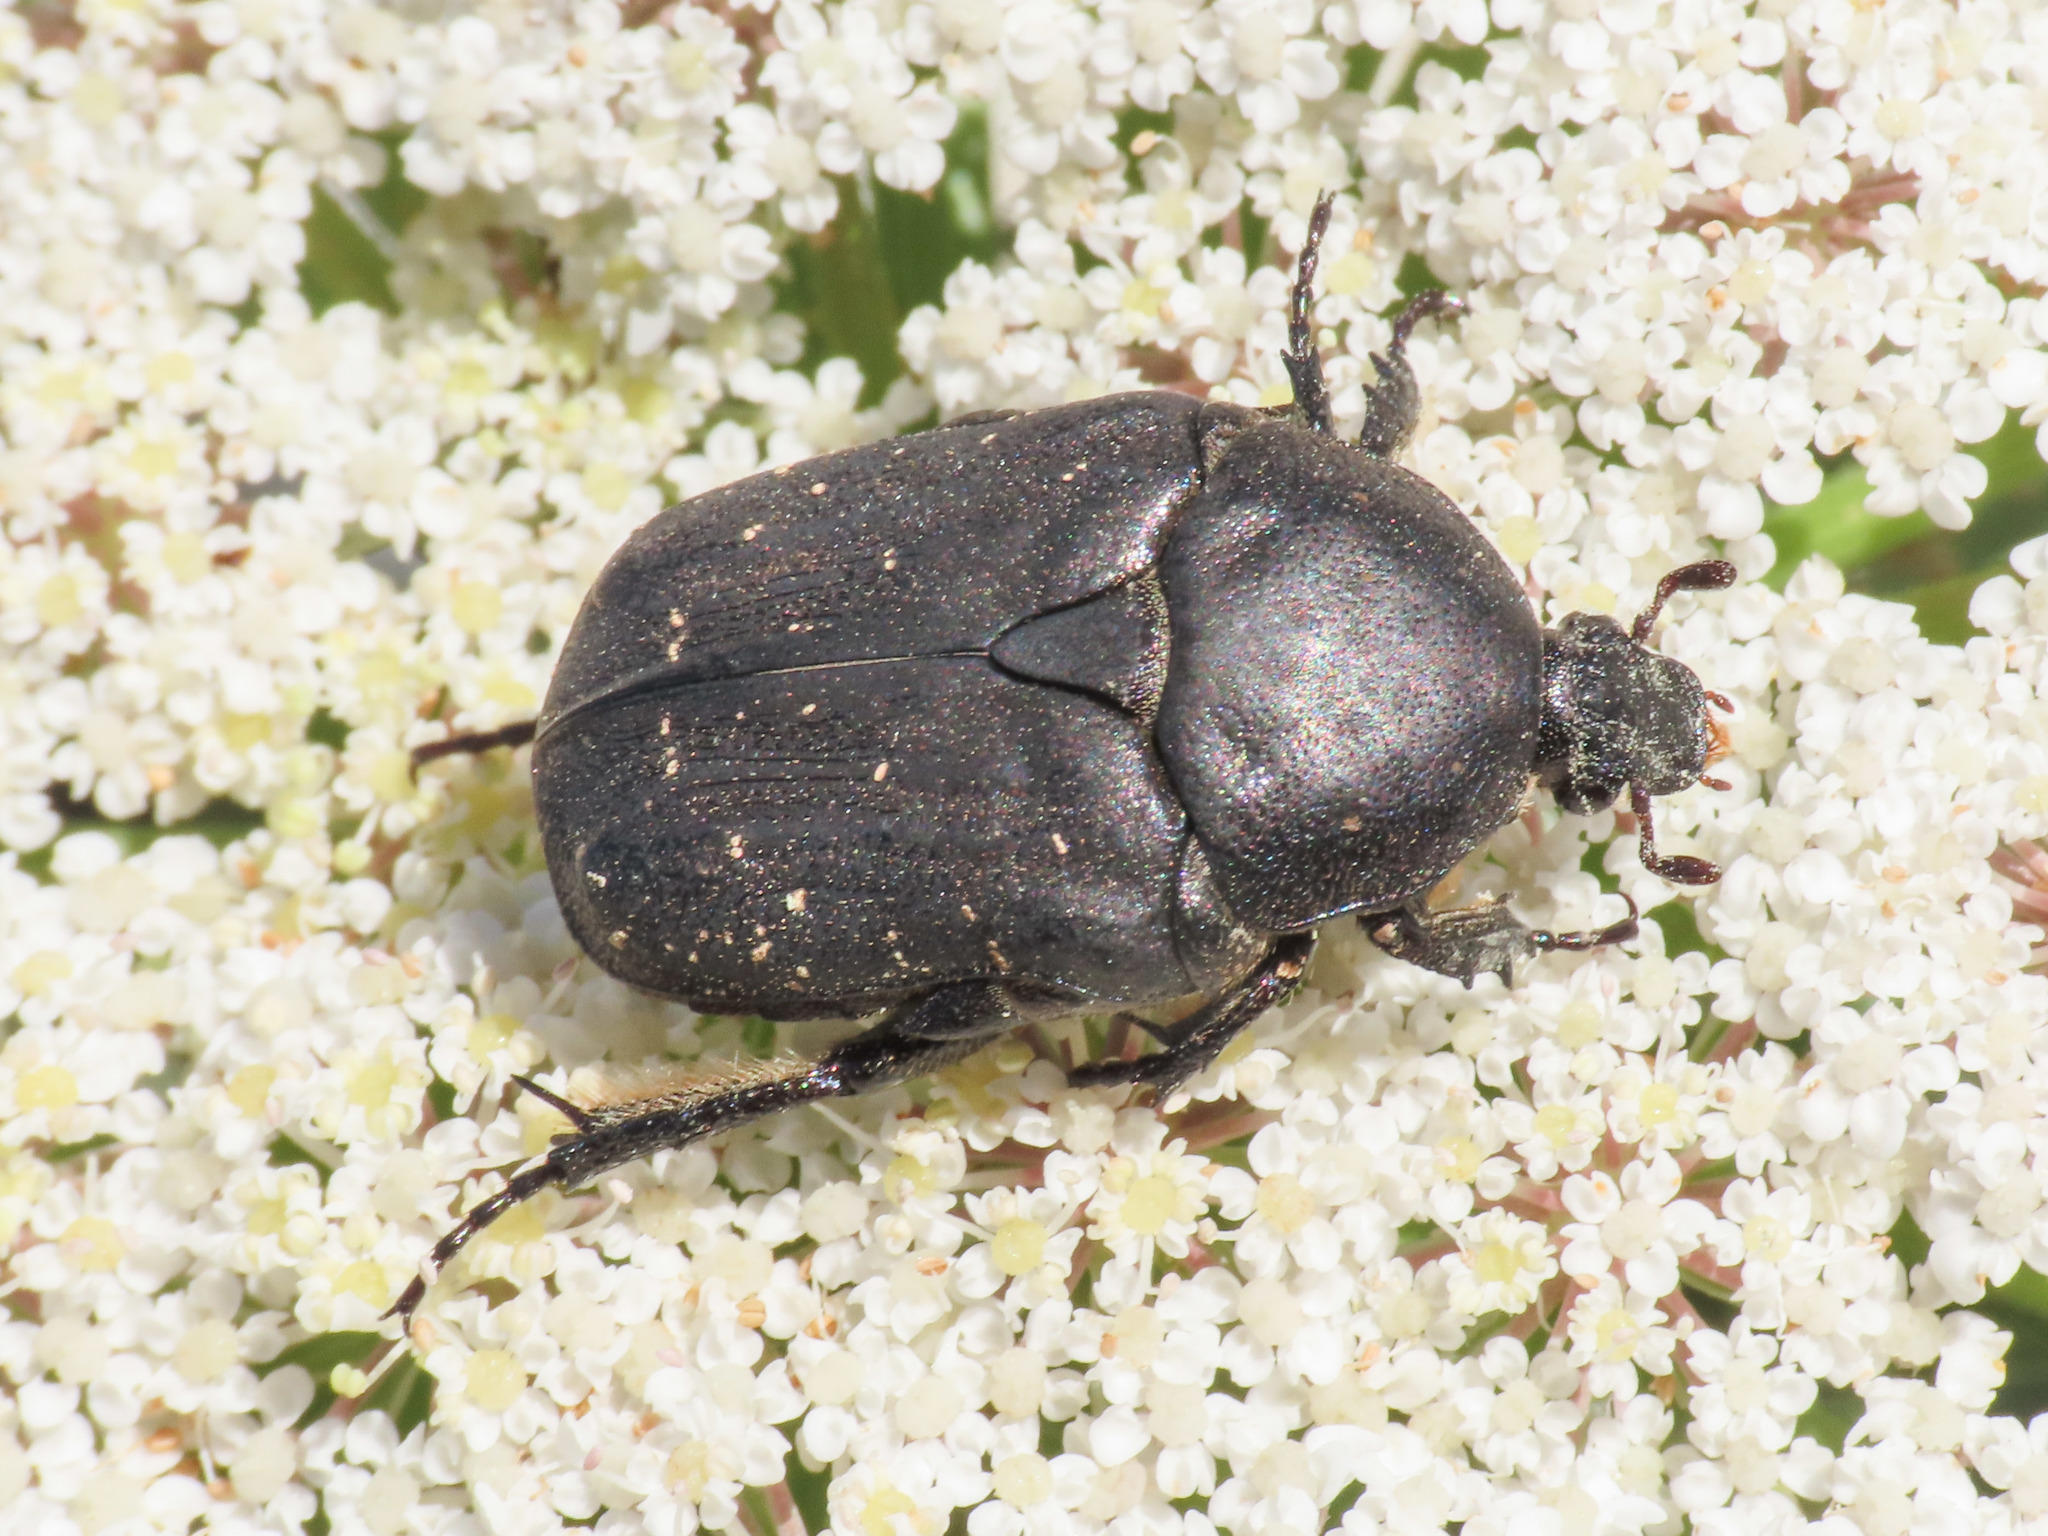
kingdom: Animalia
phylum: Arthropoda
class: Insecta
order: Coleoptera
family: Scarabaeidae
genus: Protaetia
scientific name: Protaetia morio
